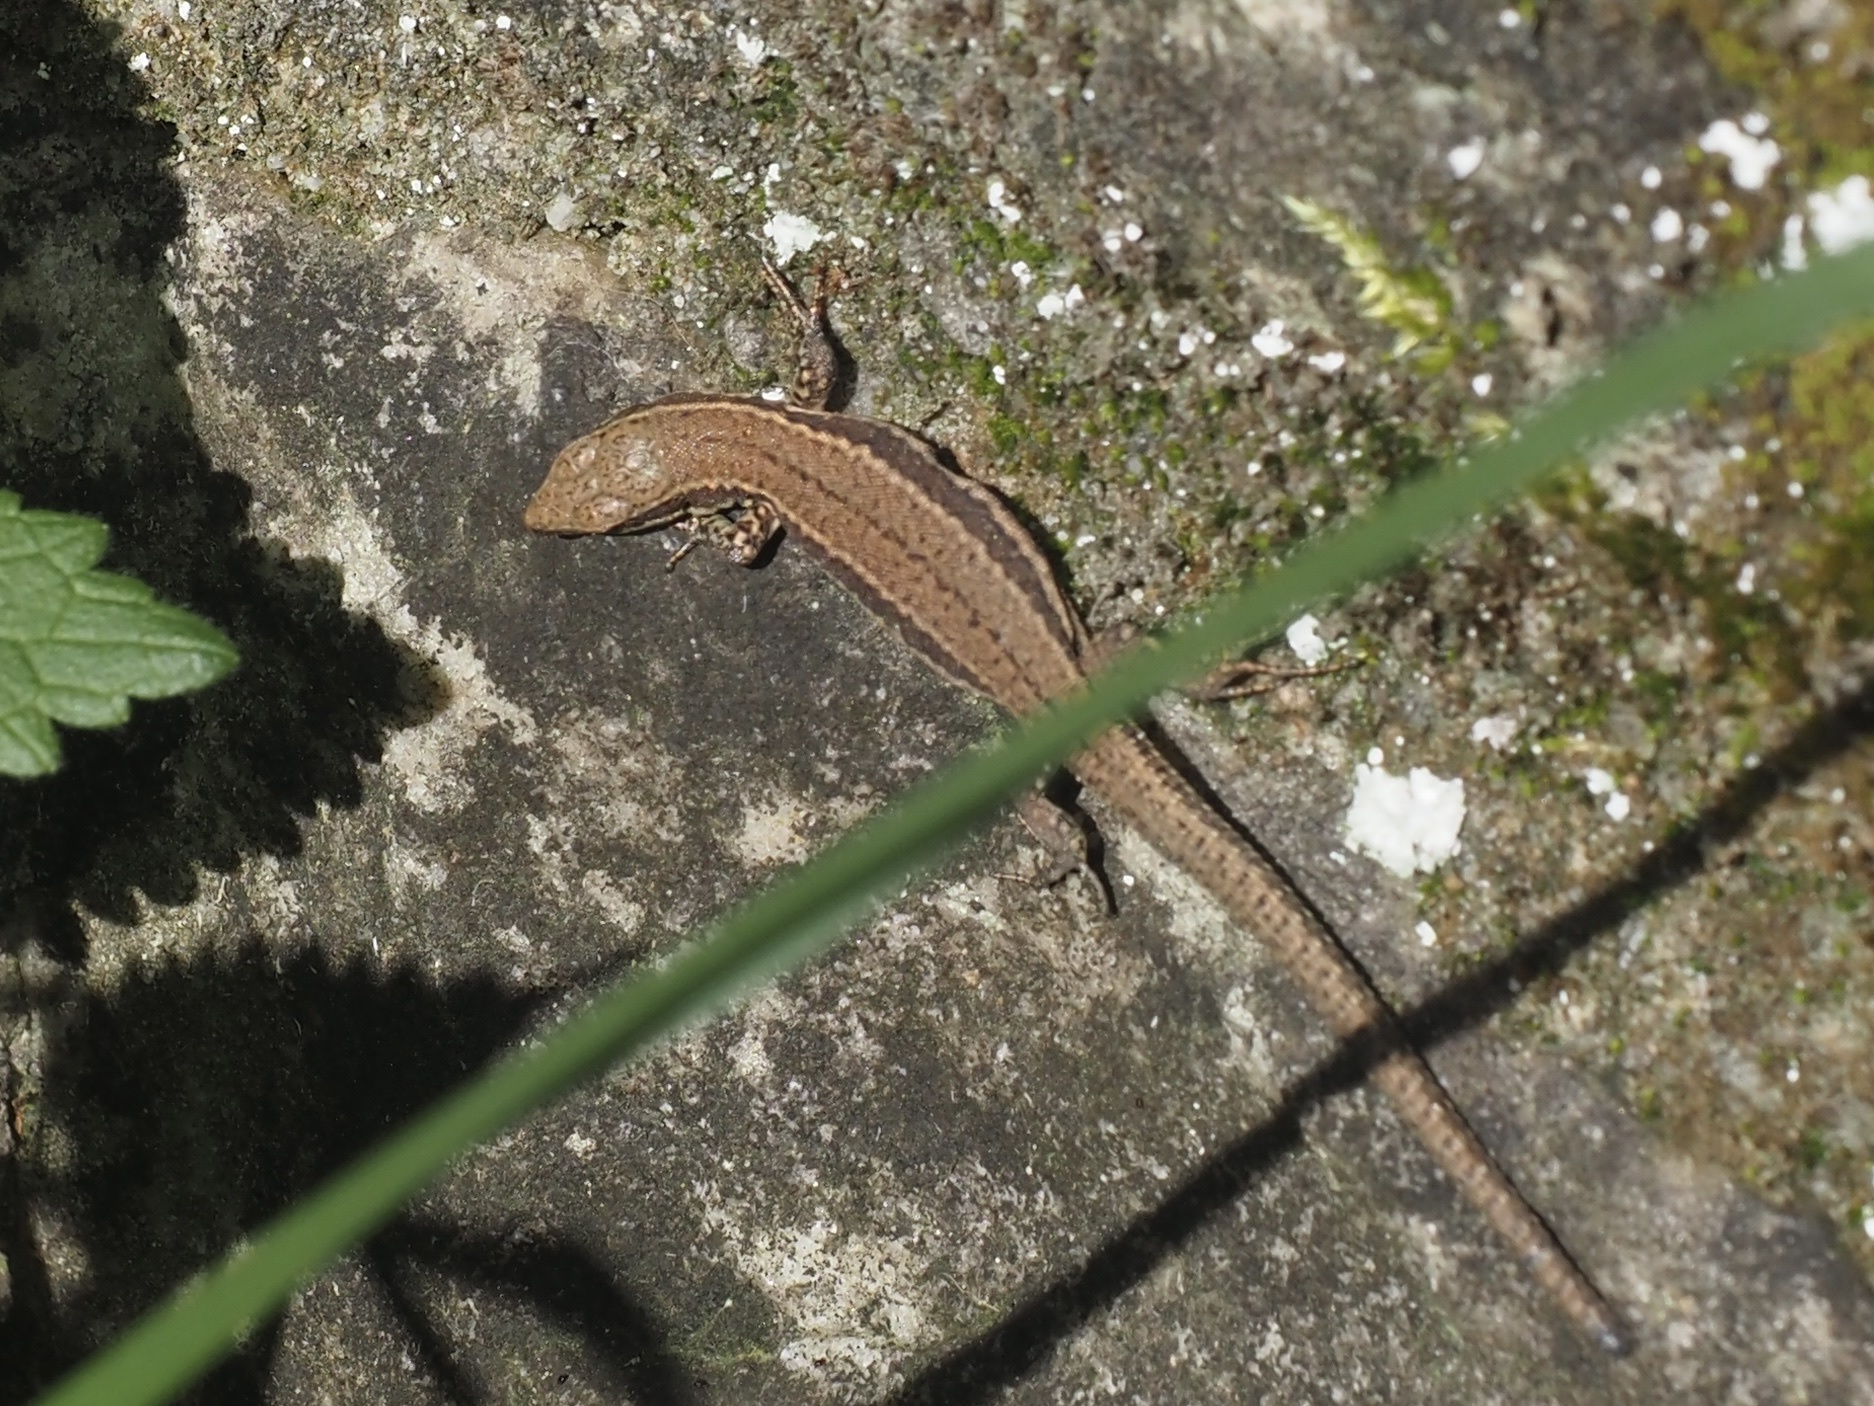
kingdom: Animalia
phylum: Chordata
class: Squamata
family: Lacertidae
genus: Podarcis
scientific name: Podarcis muralis
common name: Common wall lizard
